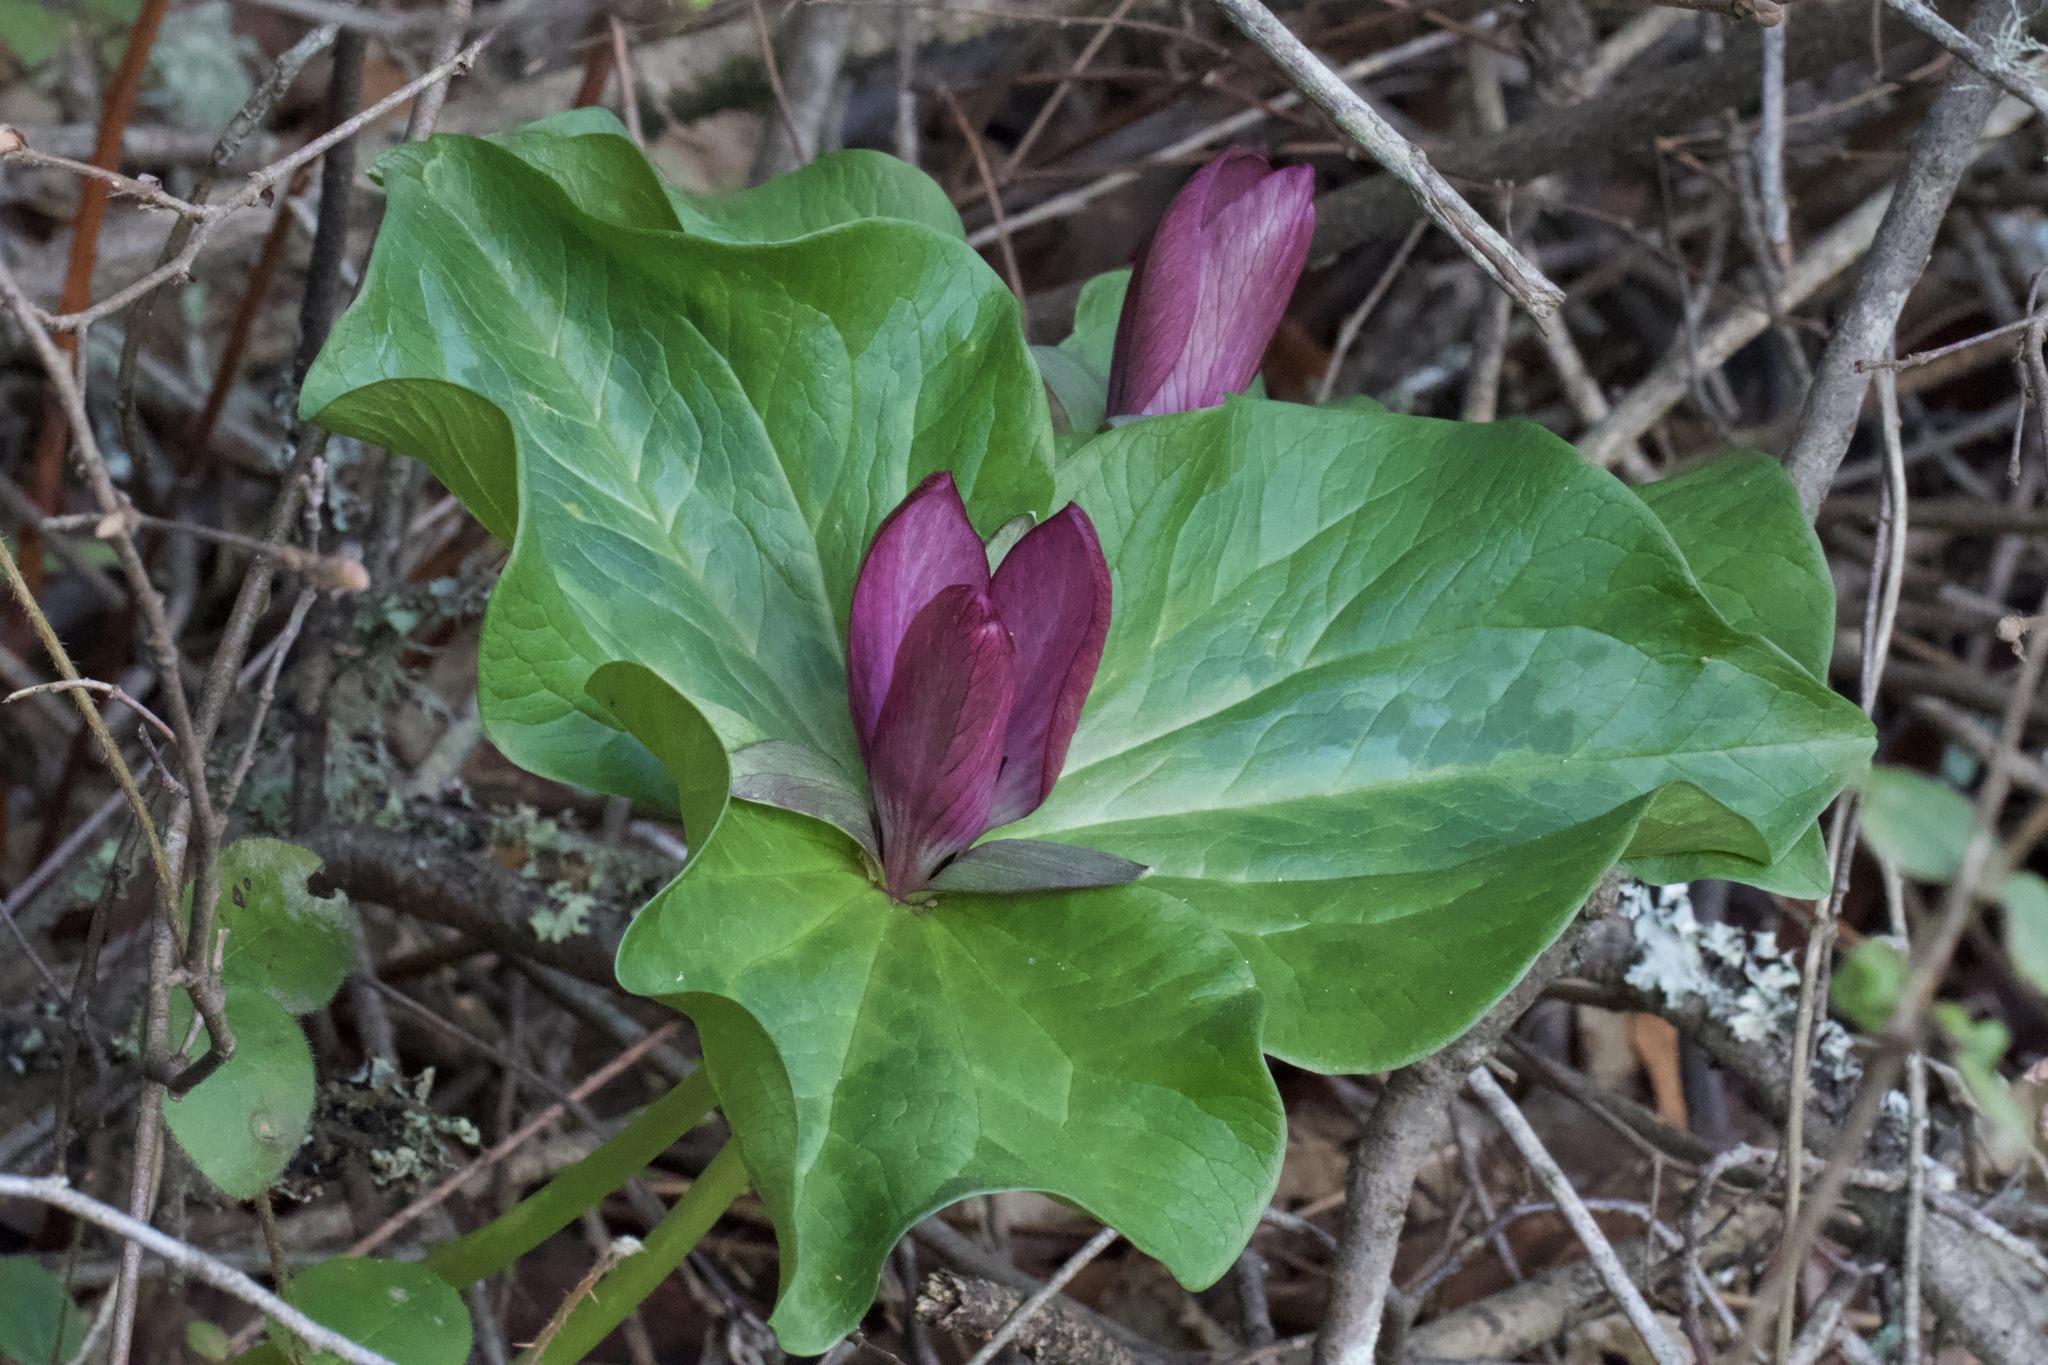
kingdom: Plantae
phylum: Tracheophyta
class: Liliopsida
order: Liliales
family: Melanthiaceae
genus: Trillium
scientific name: Trillium chloropetalum
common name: Giant trillium
